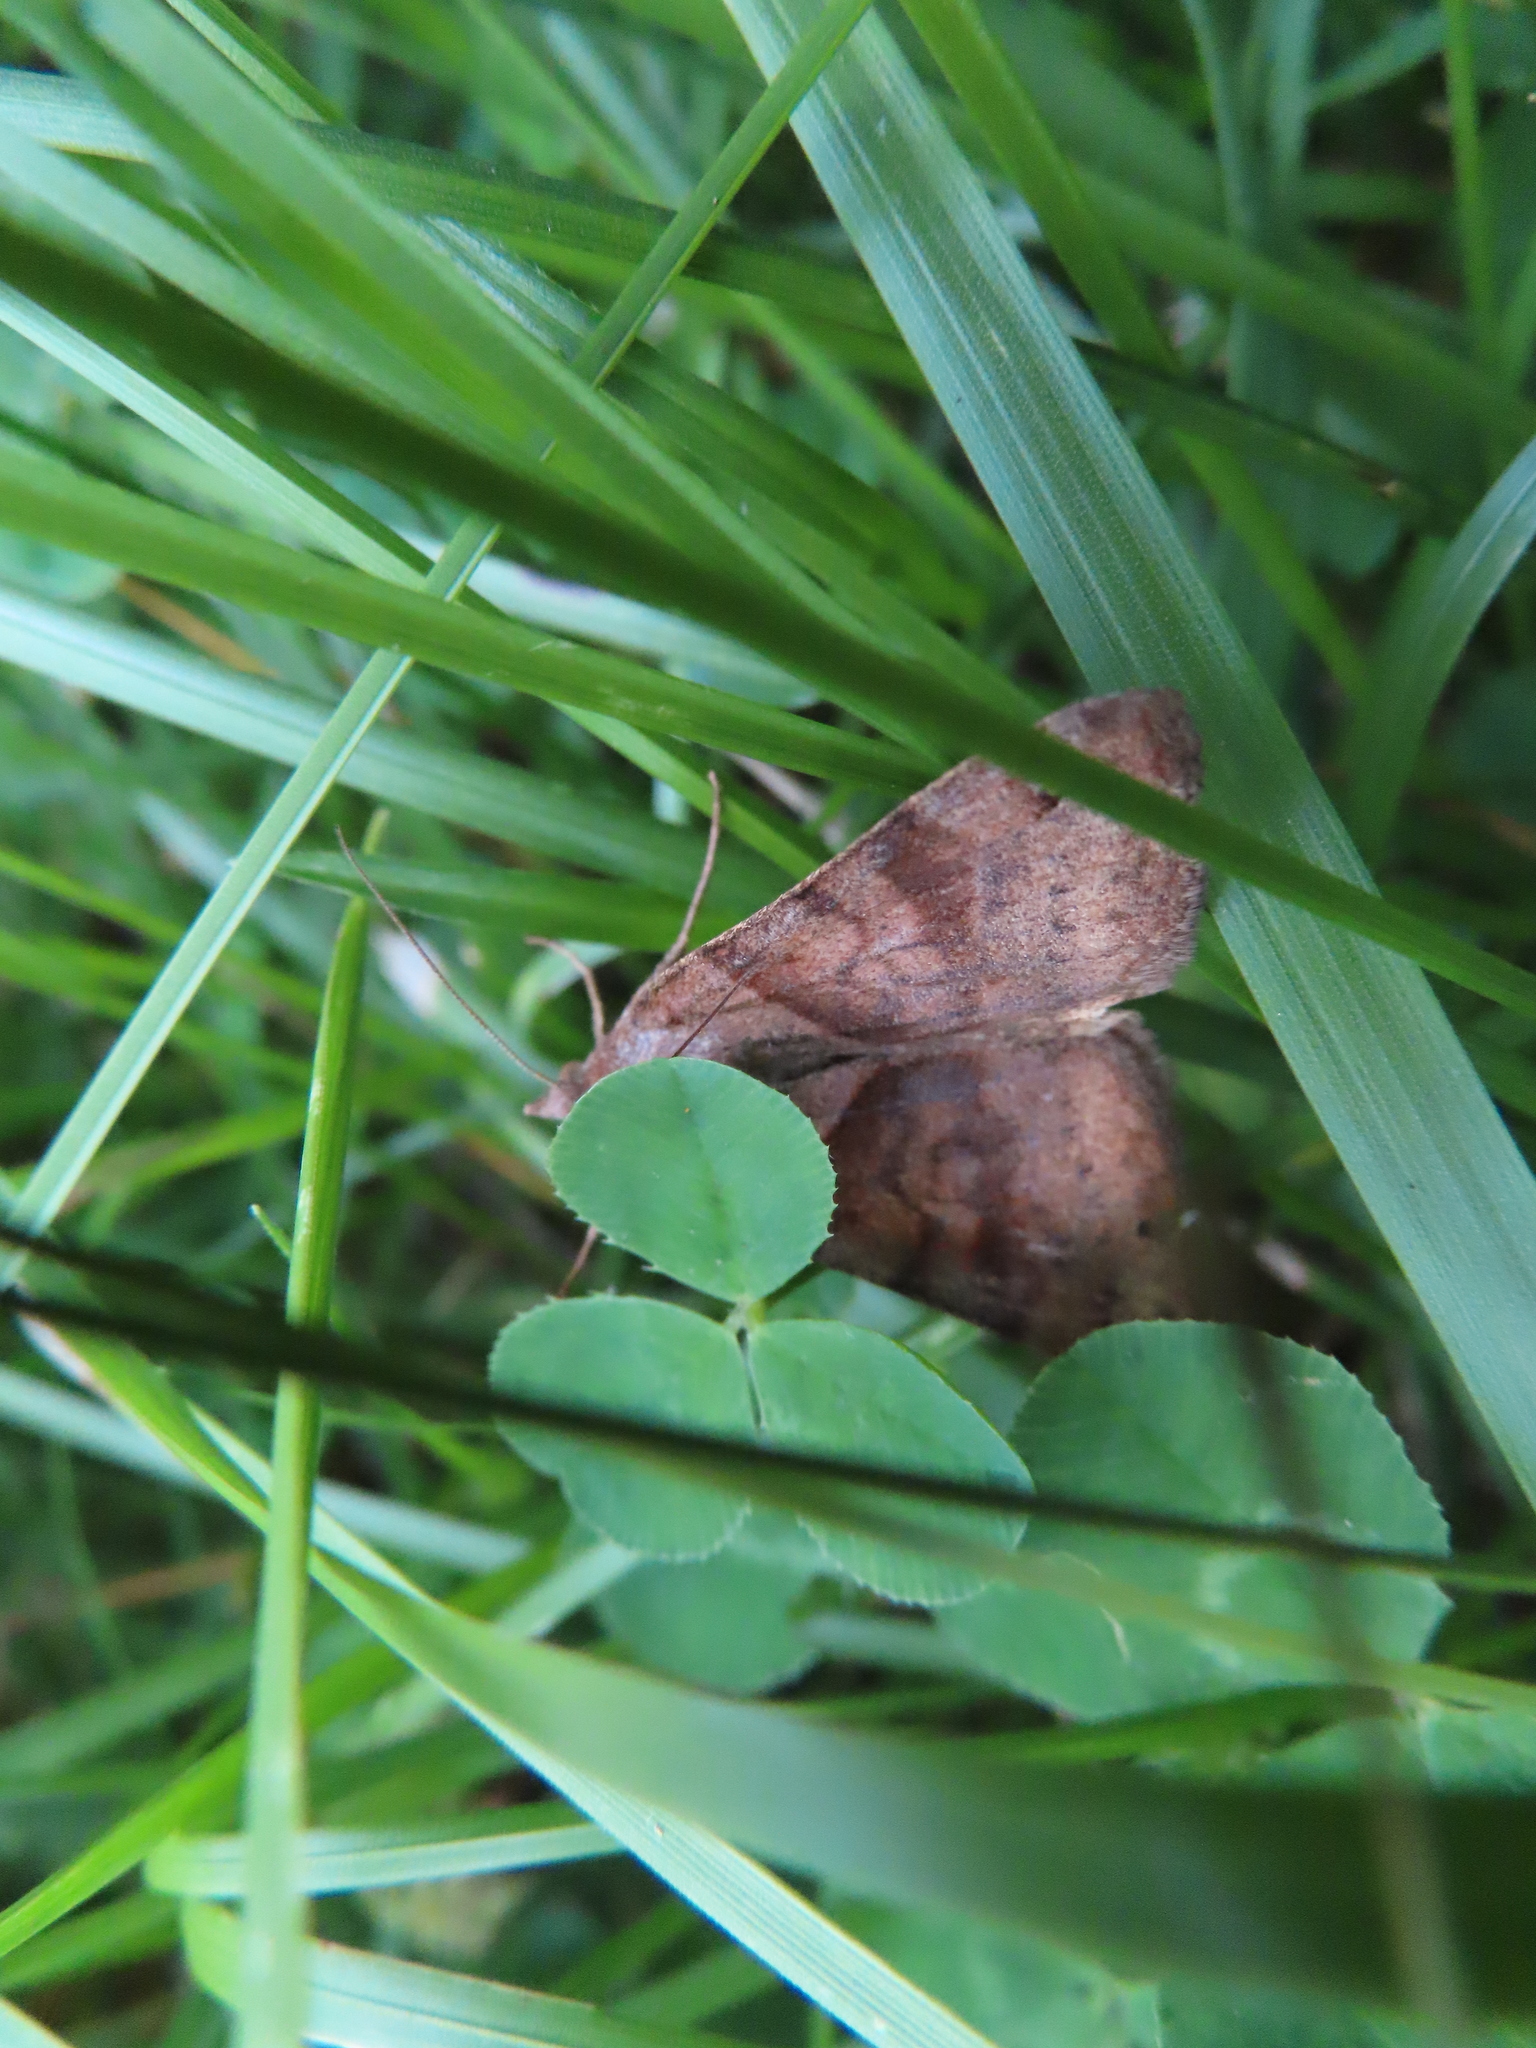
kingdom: Animalia
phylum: Arthropoda
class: Insecta
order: Lepidoptera
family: Erebidae
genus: Caenurgina
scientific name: Caenurgina crassiuscula
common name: Double-barred
